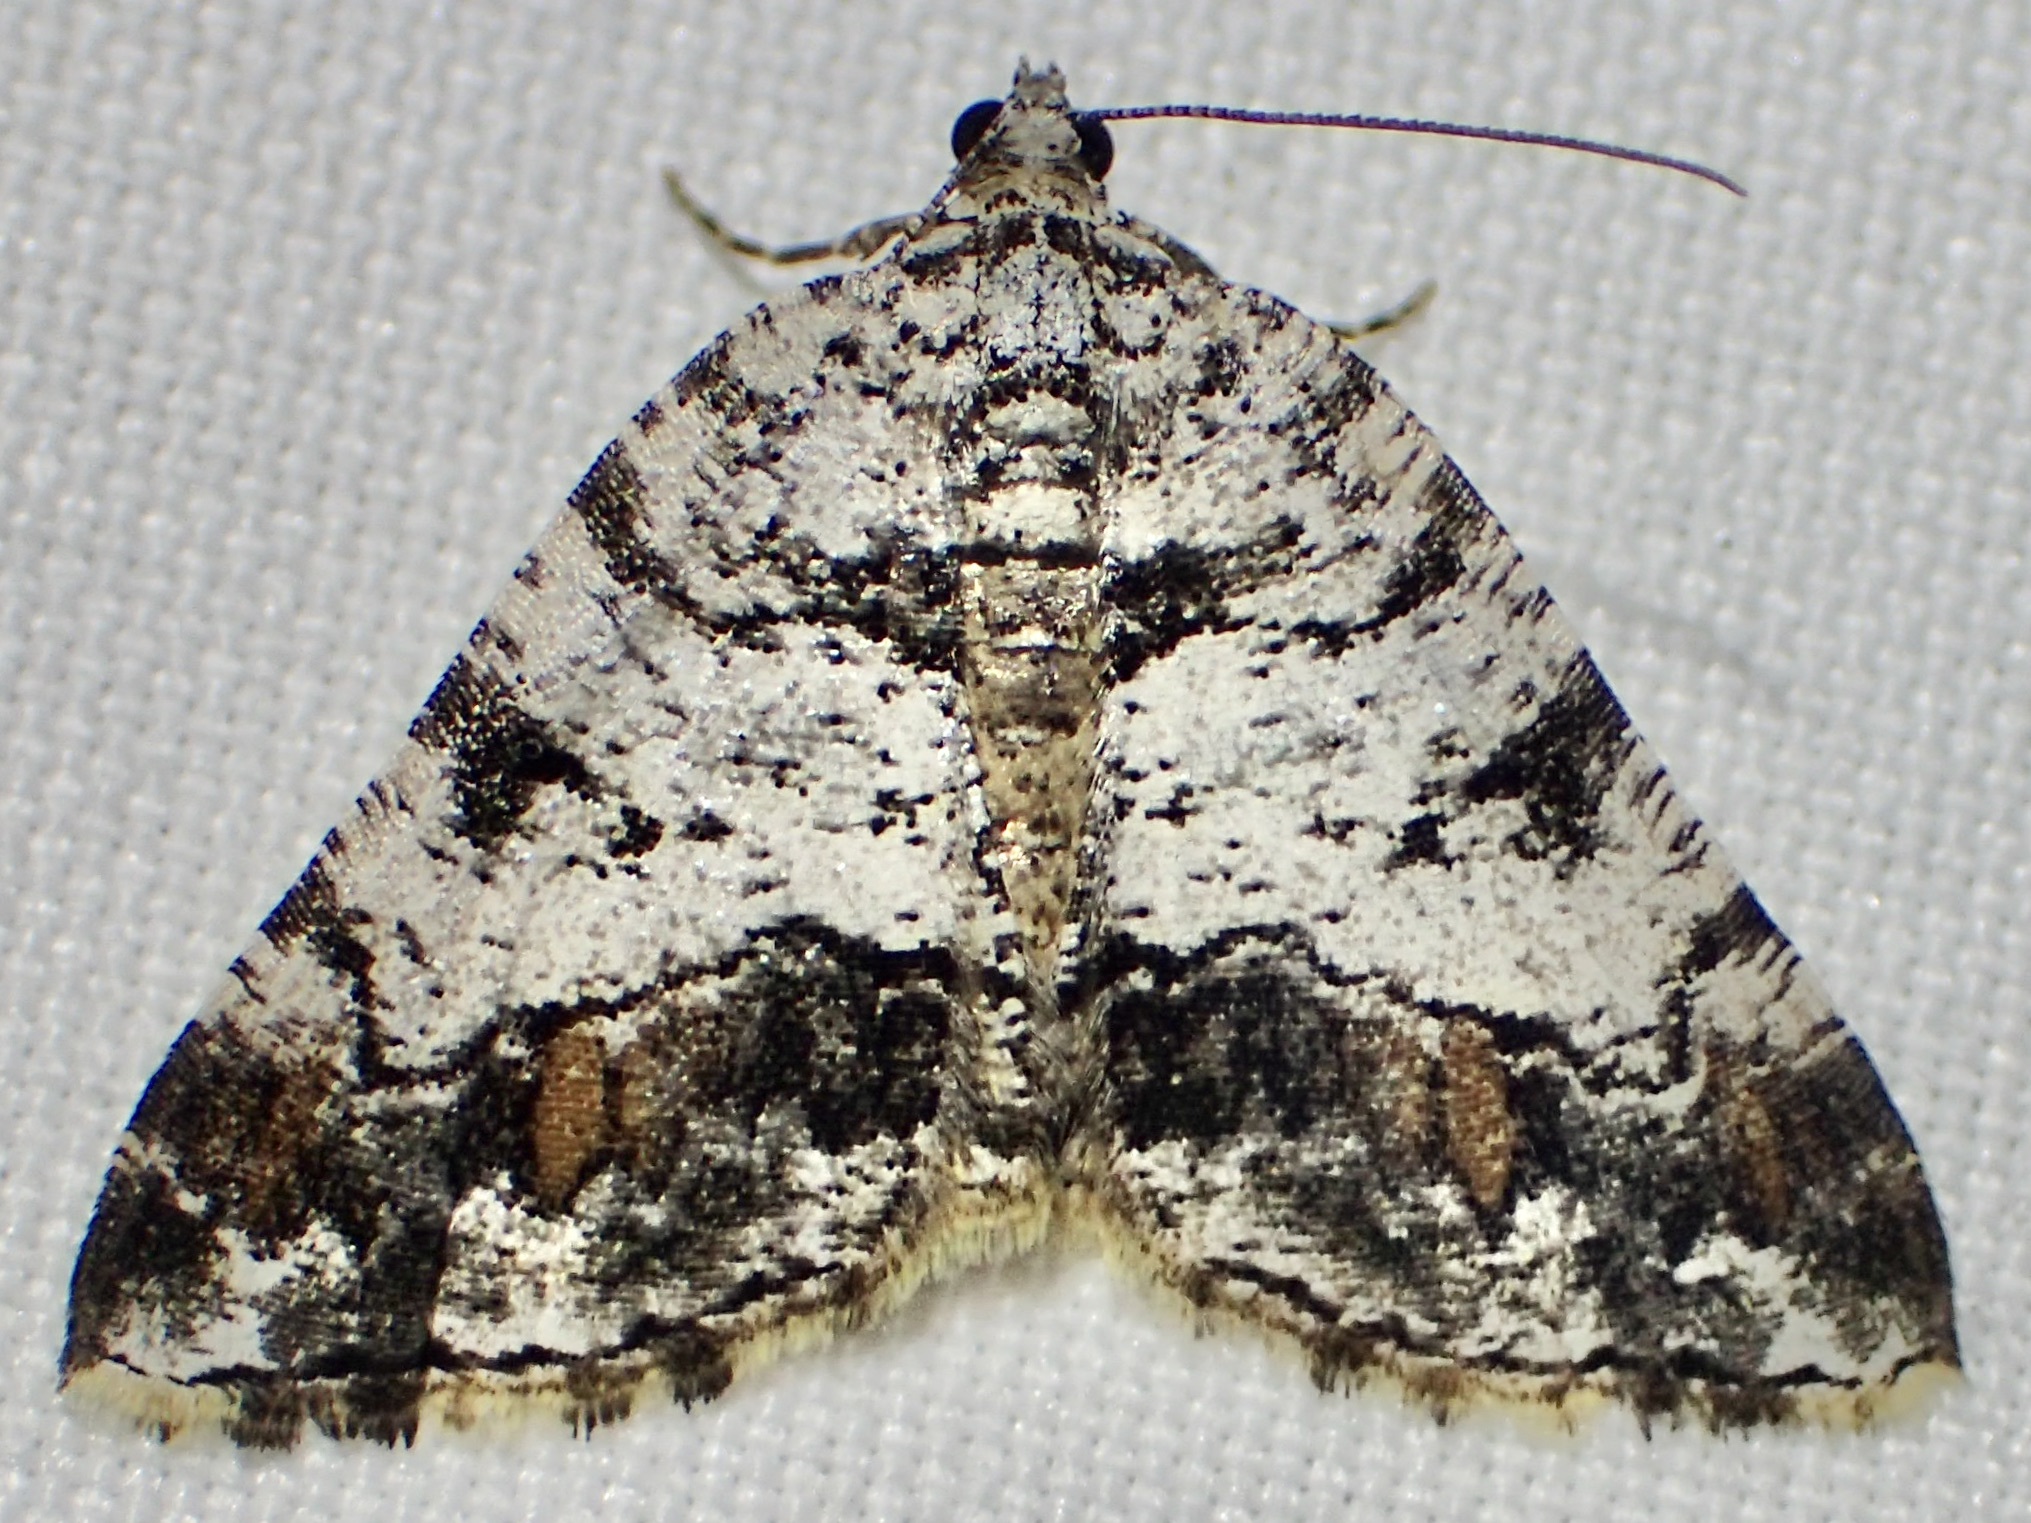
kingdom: Animalia
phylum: Arthropoda
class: Insecta
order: Lepidoptera
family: Geometridae
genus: Macaria
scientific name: Macaria deceptrix
